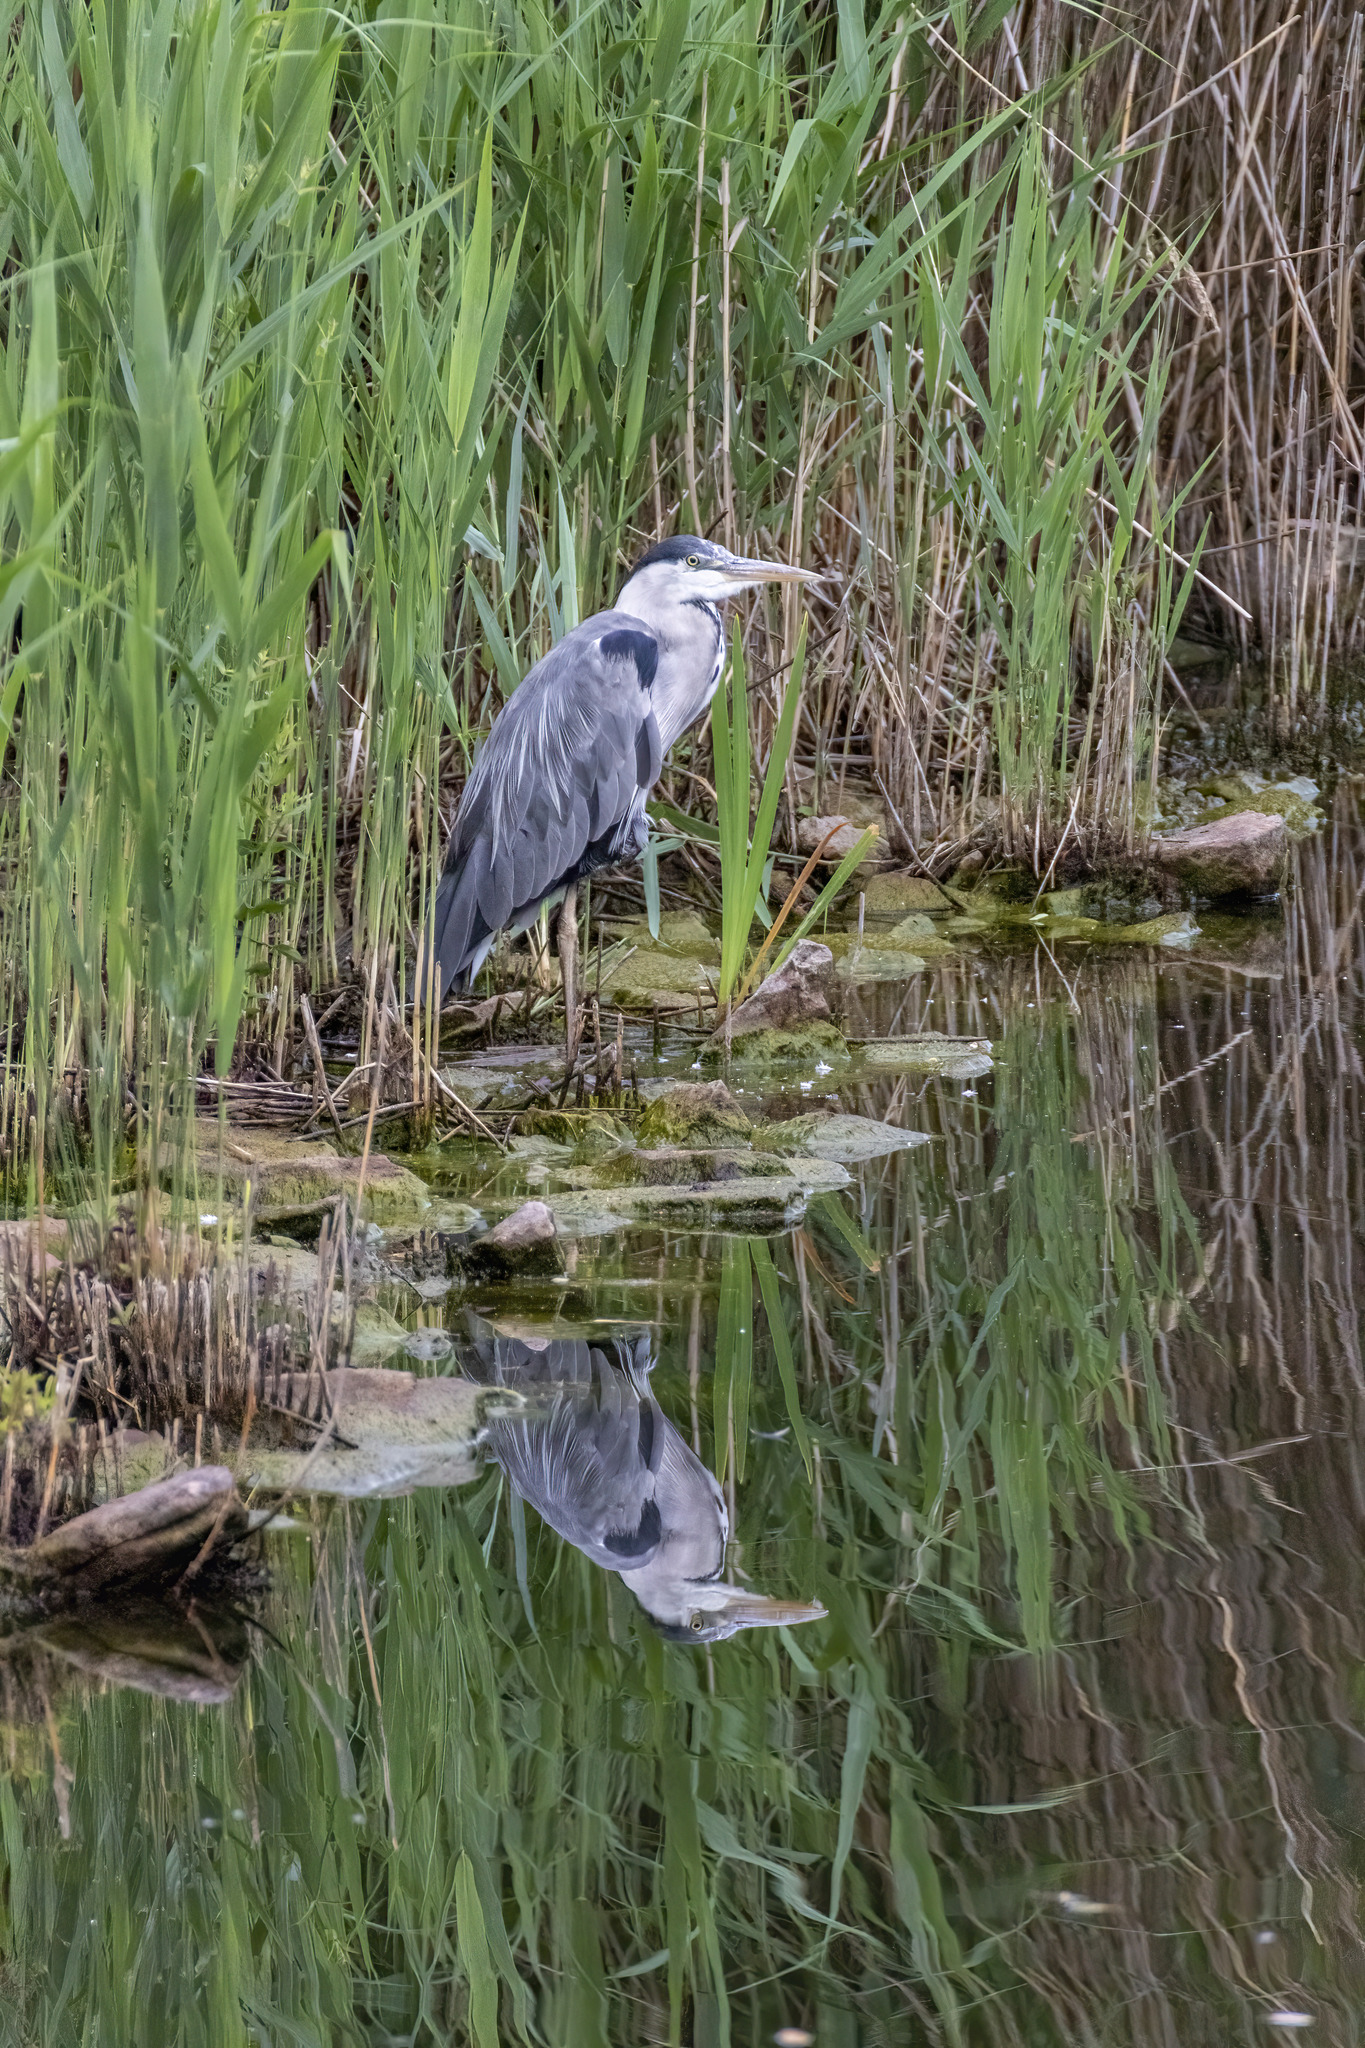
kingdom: Animalia
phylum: Chordata
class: Aves
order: Pelecaniformes
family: Ardeidae
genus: Ardea
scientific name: Ardea cinerea
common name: Grey heron
